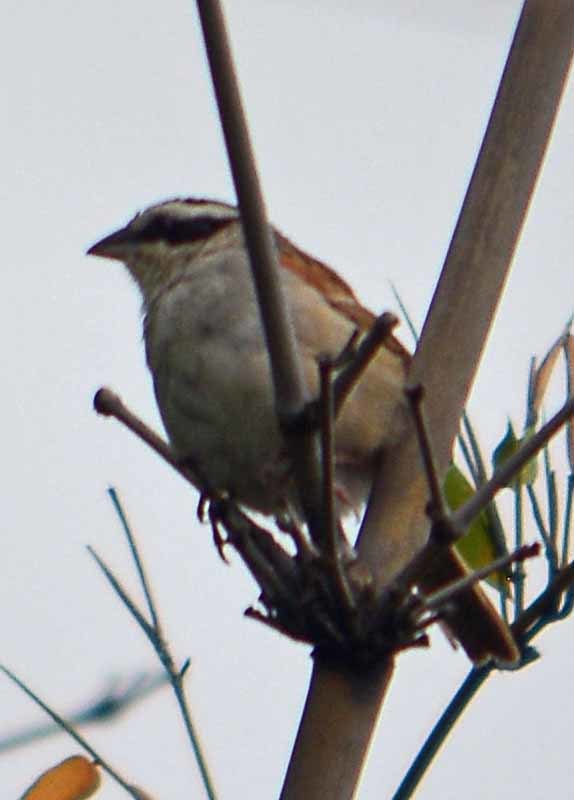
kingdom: Animalia
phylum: Chordata
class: Aves
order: Passeriformes
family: Passerellidae
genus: Peucaea
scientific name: Peucaea ruficauda
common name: Stripe-headed sparrow
